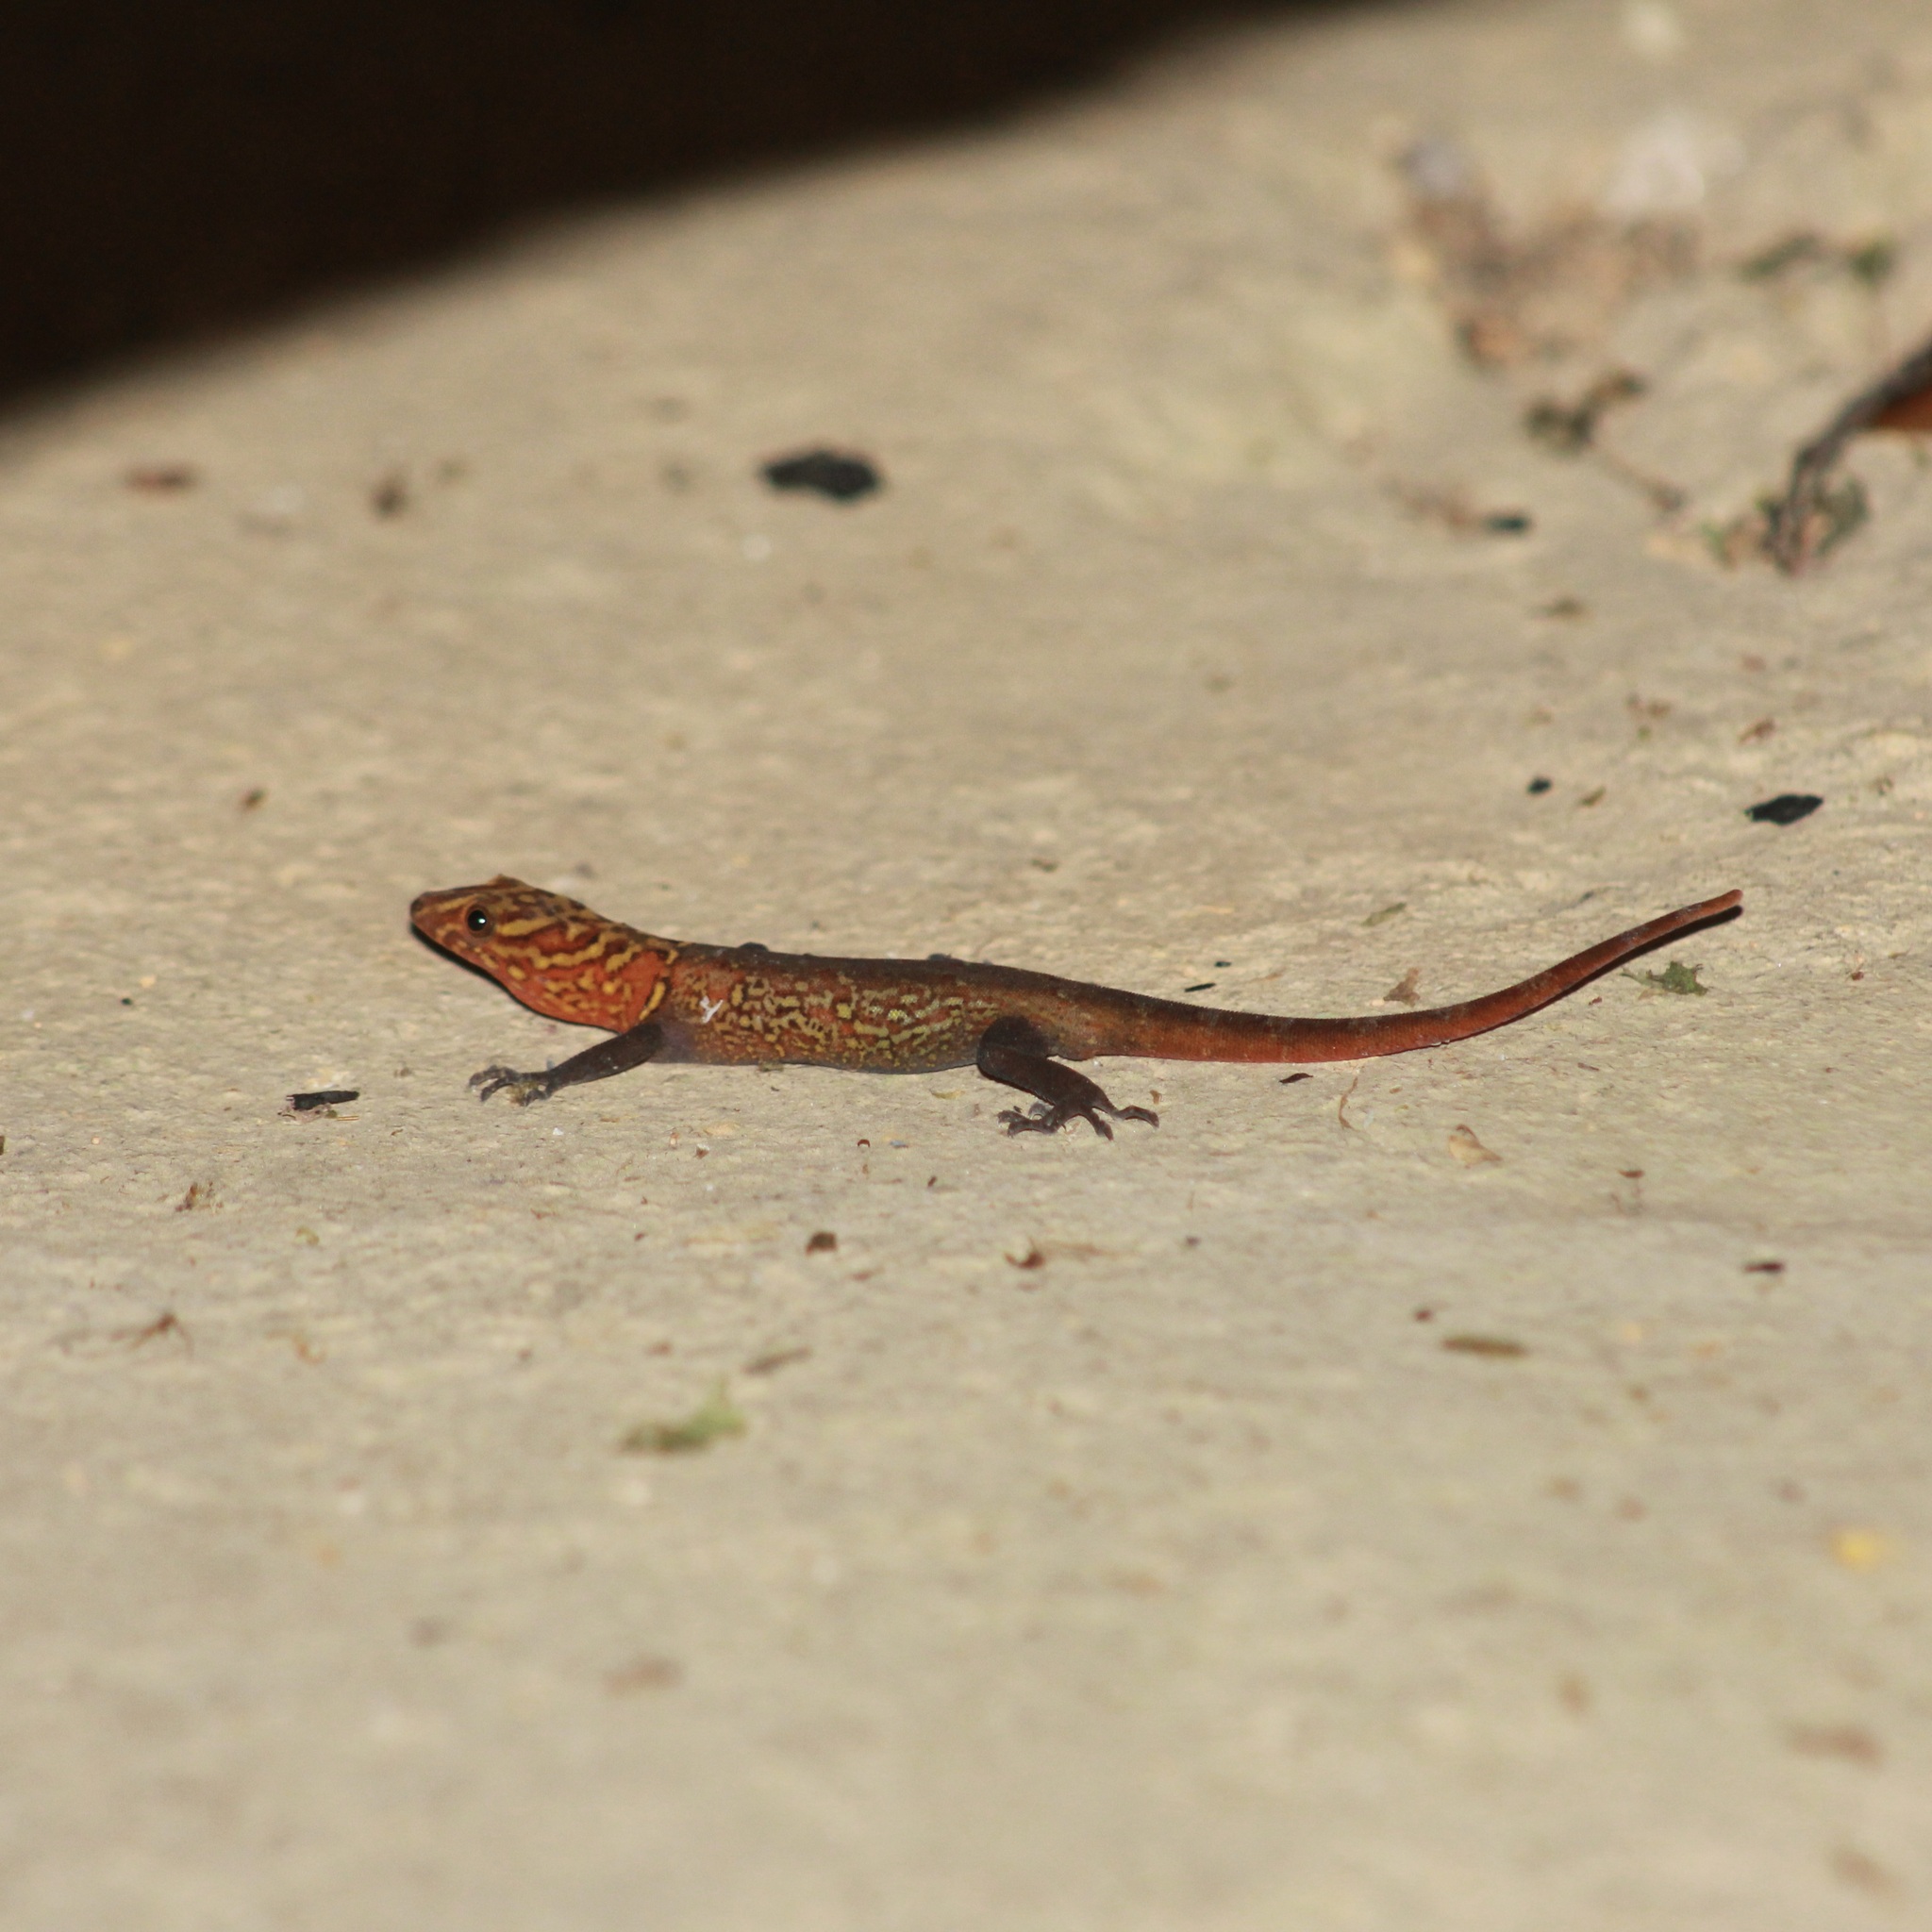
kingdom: Animalia
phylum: Chordata
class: Squamata
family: Sphaerodactylidae
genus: Gonatodes
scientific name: Gonatodes ceciliae
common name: Brilliant south american gecko
